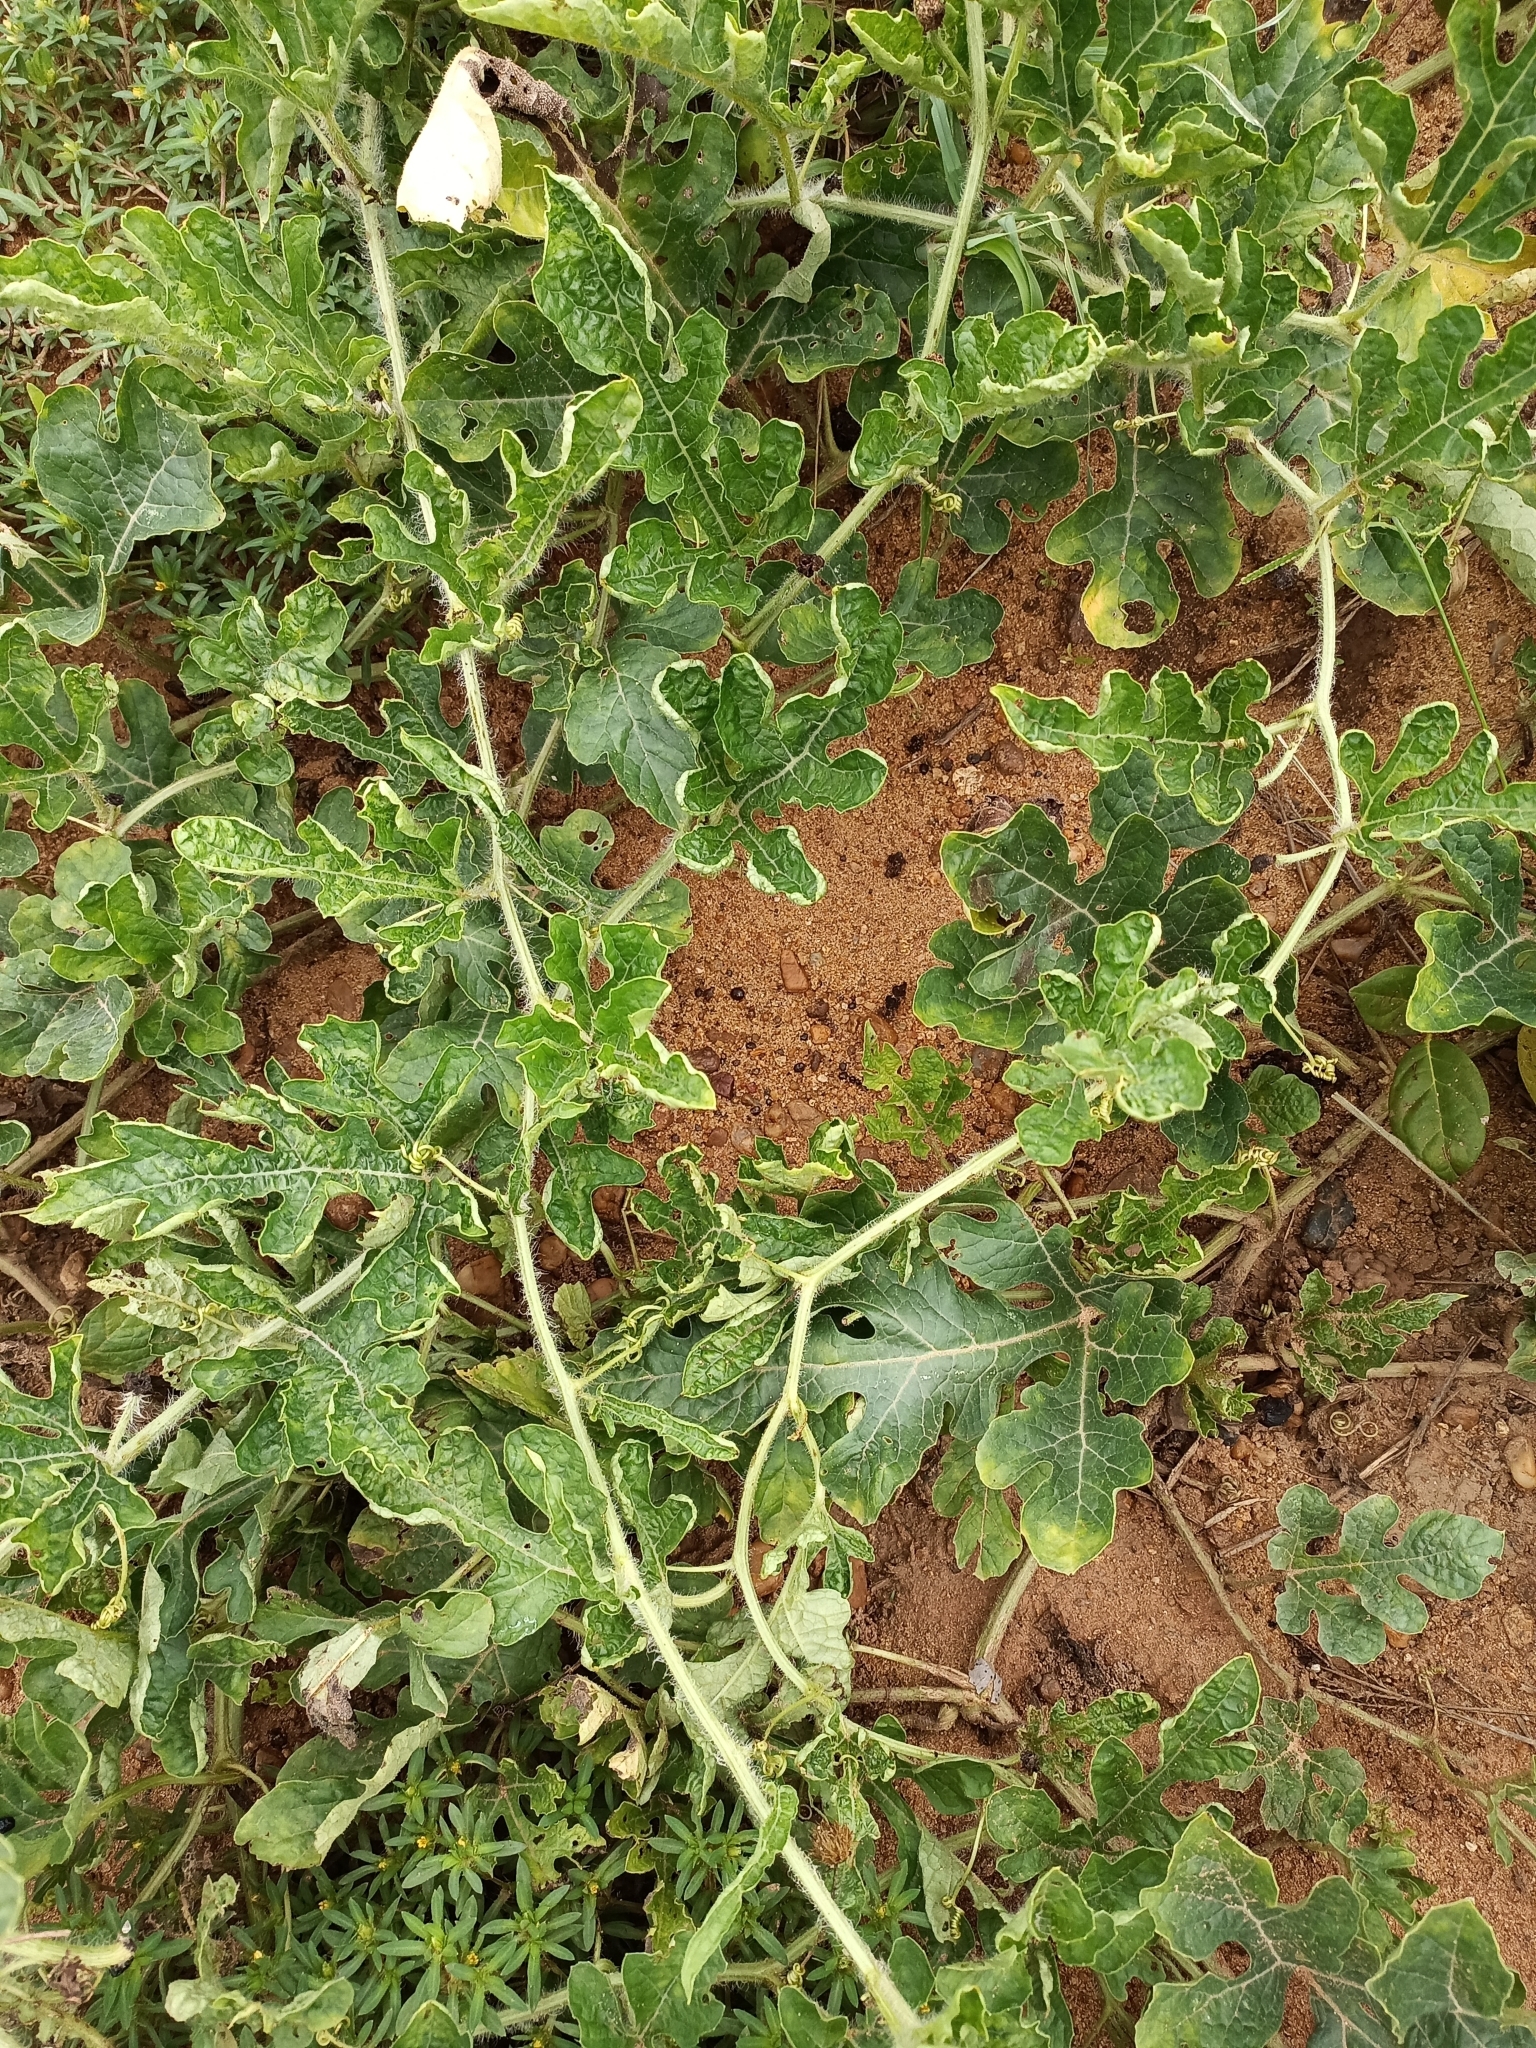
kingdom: Plantae
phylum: Tracheophyta
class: Magnoliopsida
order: Cucurbitales
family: Cucurbitaceae
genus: Citrullus
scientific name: Citrullus lanatus
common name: Watermelon
